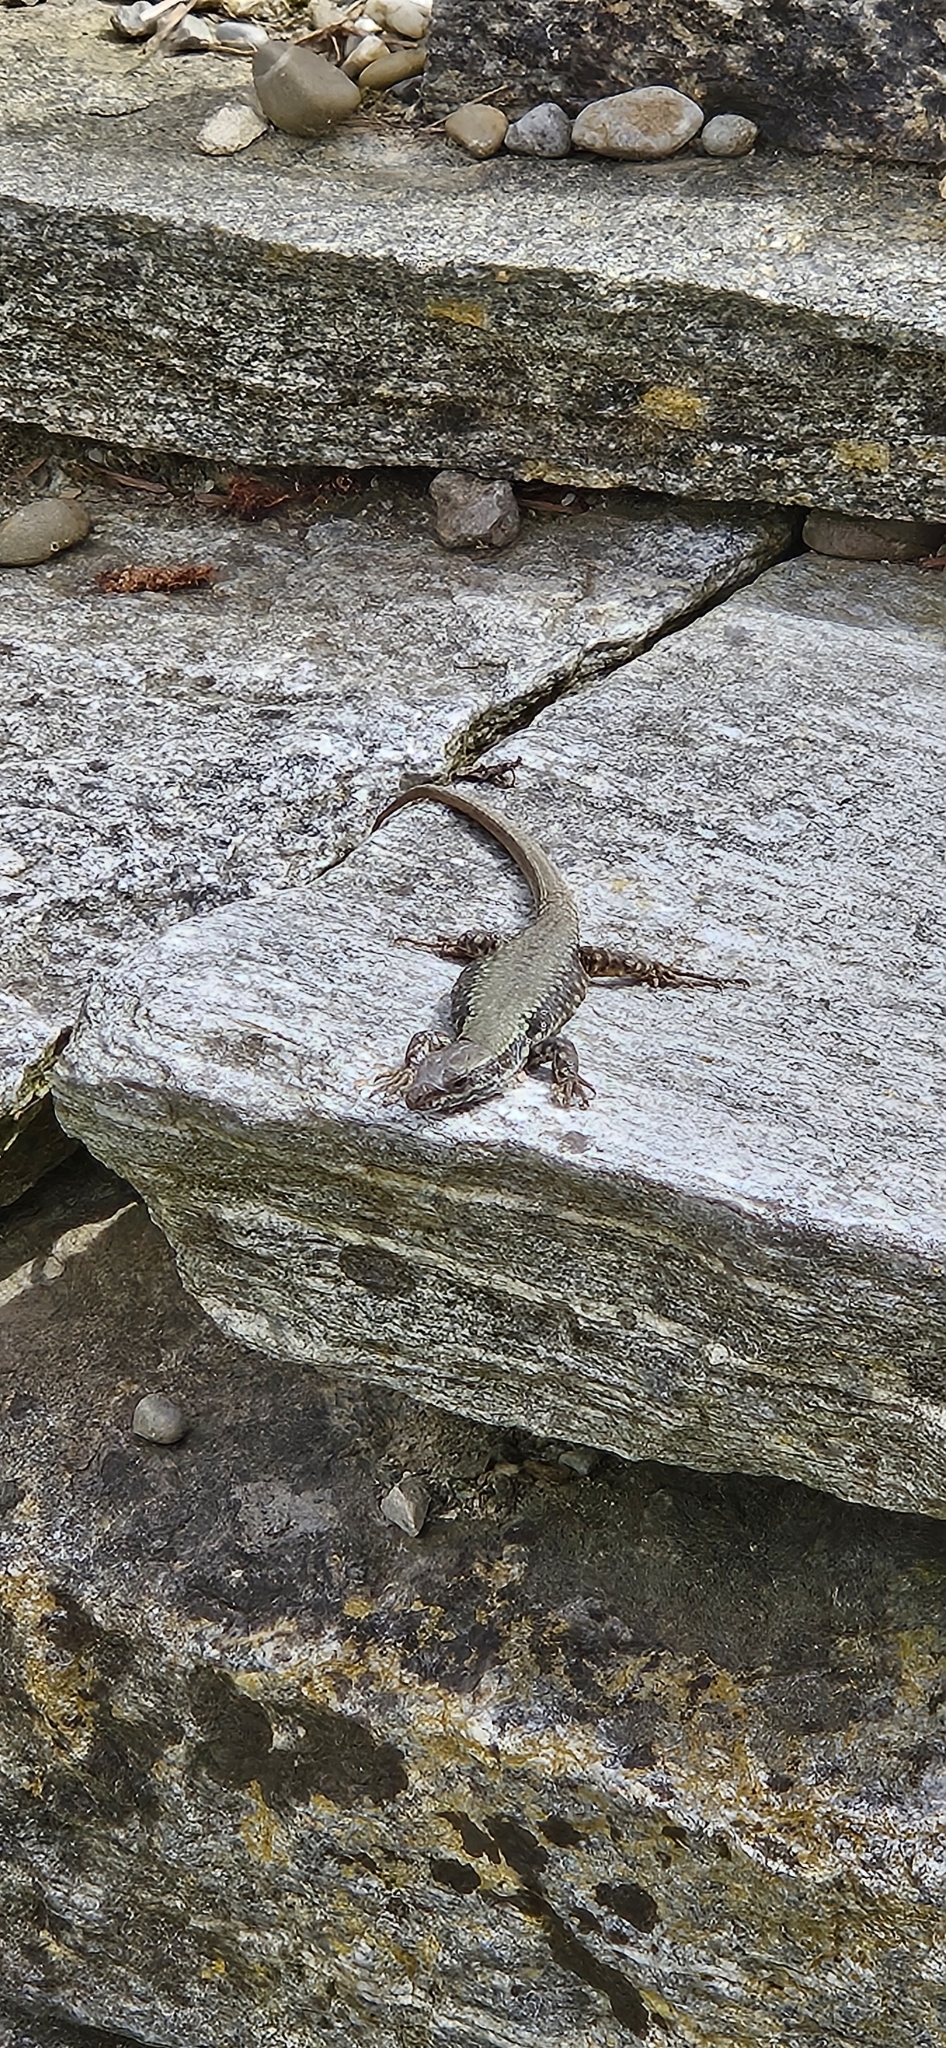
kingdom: Animalia
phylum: Chordata
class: Squamata
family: Lacertidae
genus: Podarcis
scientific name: Podarcis muralis
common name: Common wall lizard
